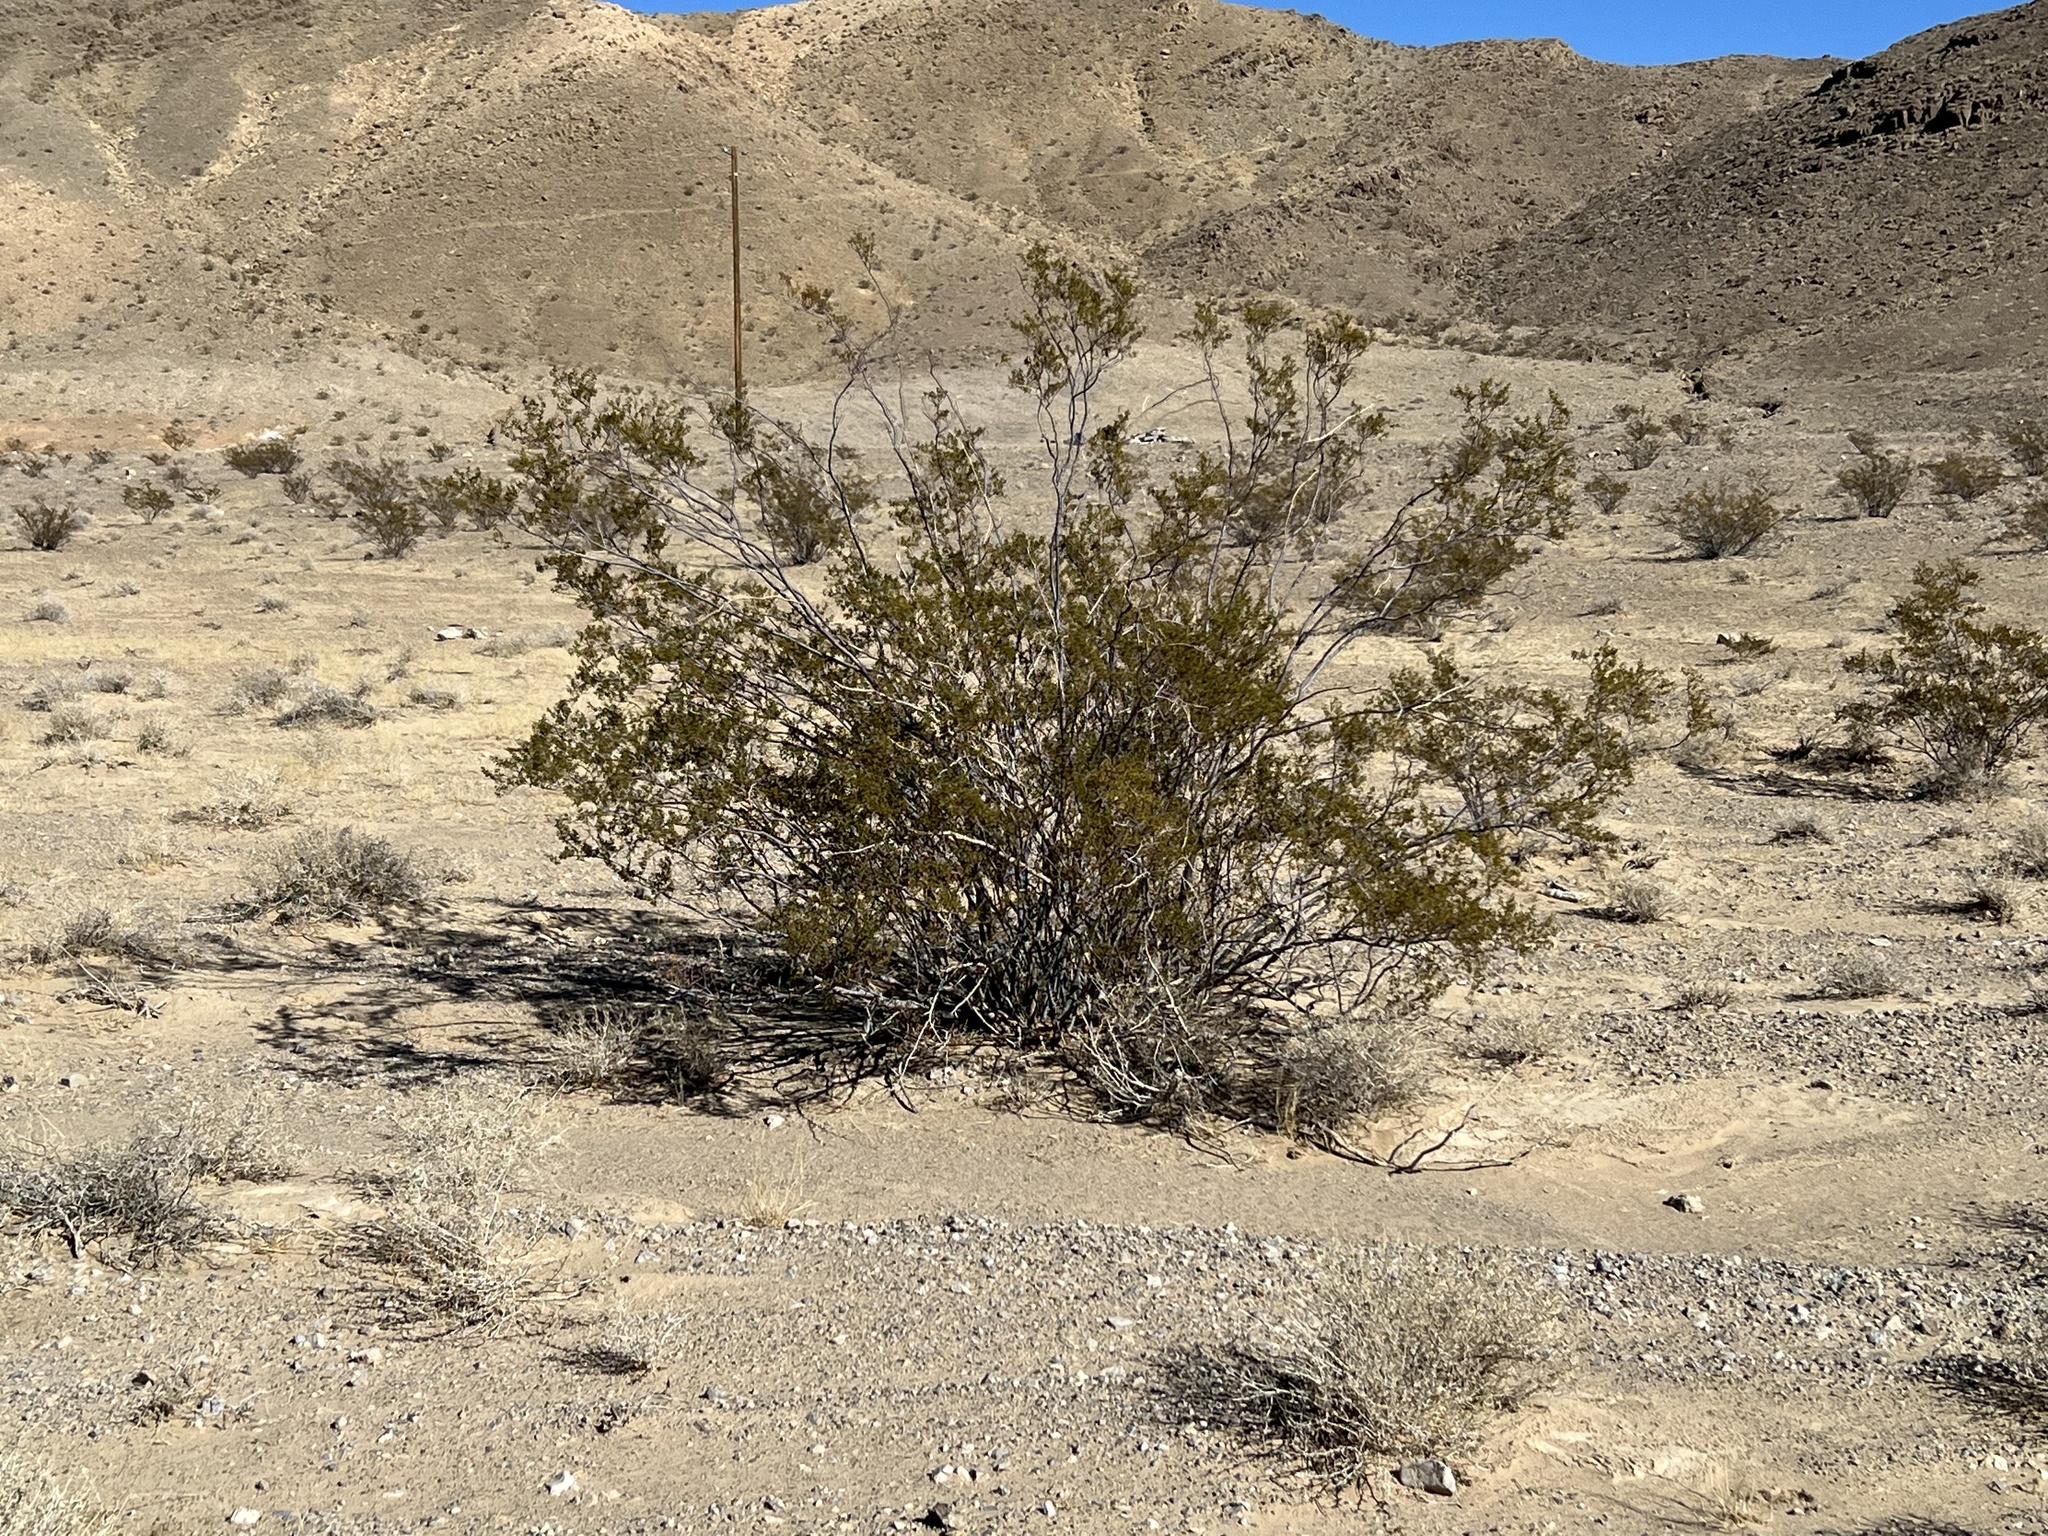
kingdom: Plantae
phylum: Tracheophyta
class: Magnoliopsida
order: Zygophyllales
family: Zygophyllaceae
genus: Larrea
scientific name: Larrea tridentata
